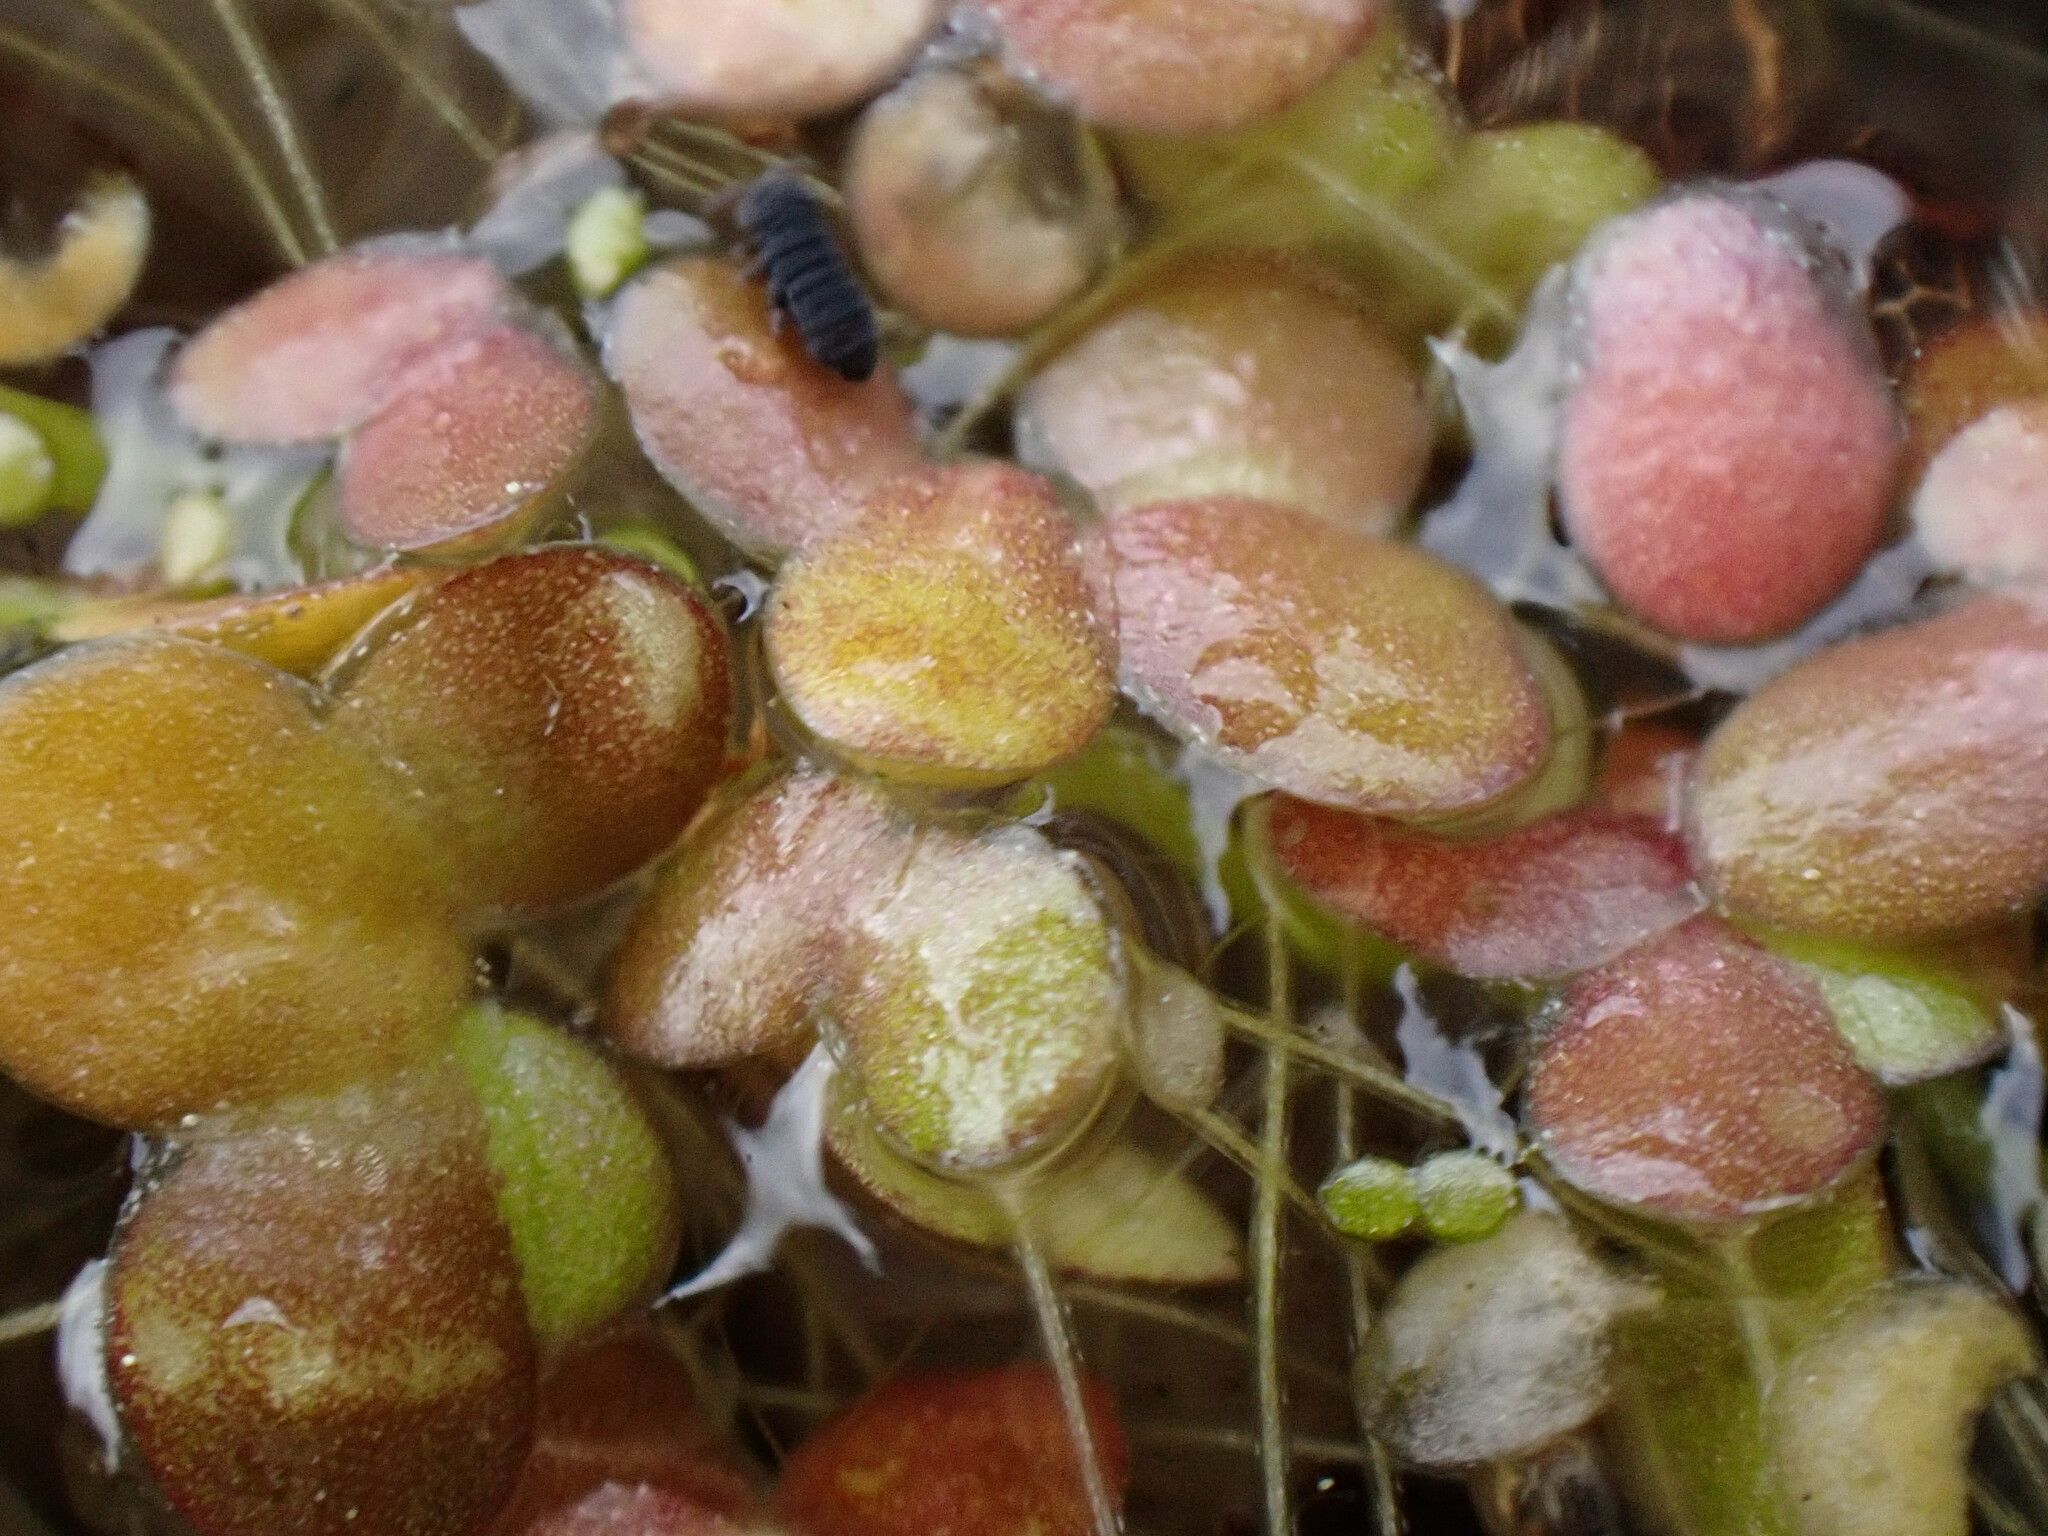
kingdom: Plantae
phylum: Tracheophyta
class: Liliopsida
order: Alismatales
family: Araceae
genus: Lemna
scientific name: Lemna gibba
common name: Fat duckweed
